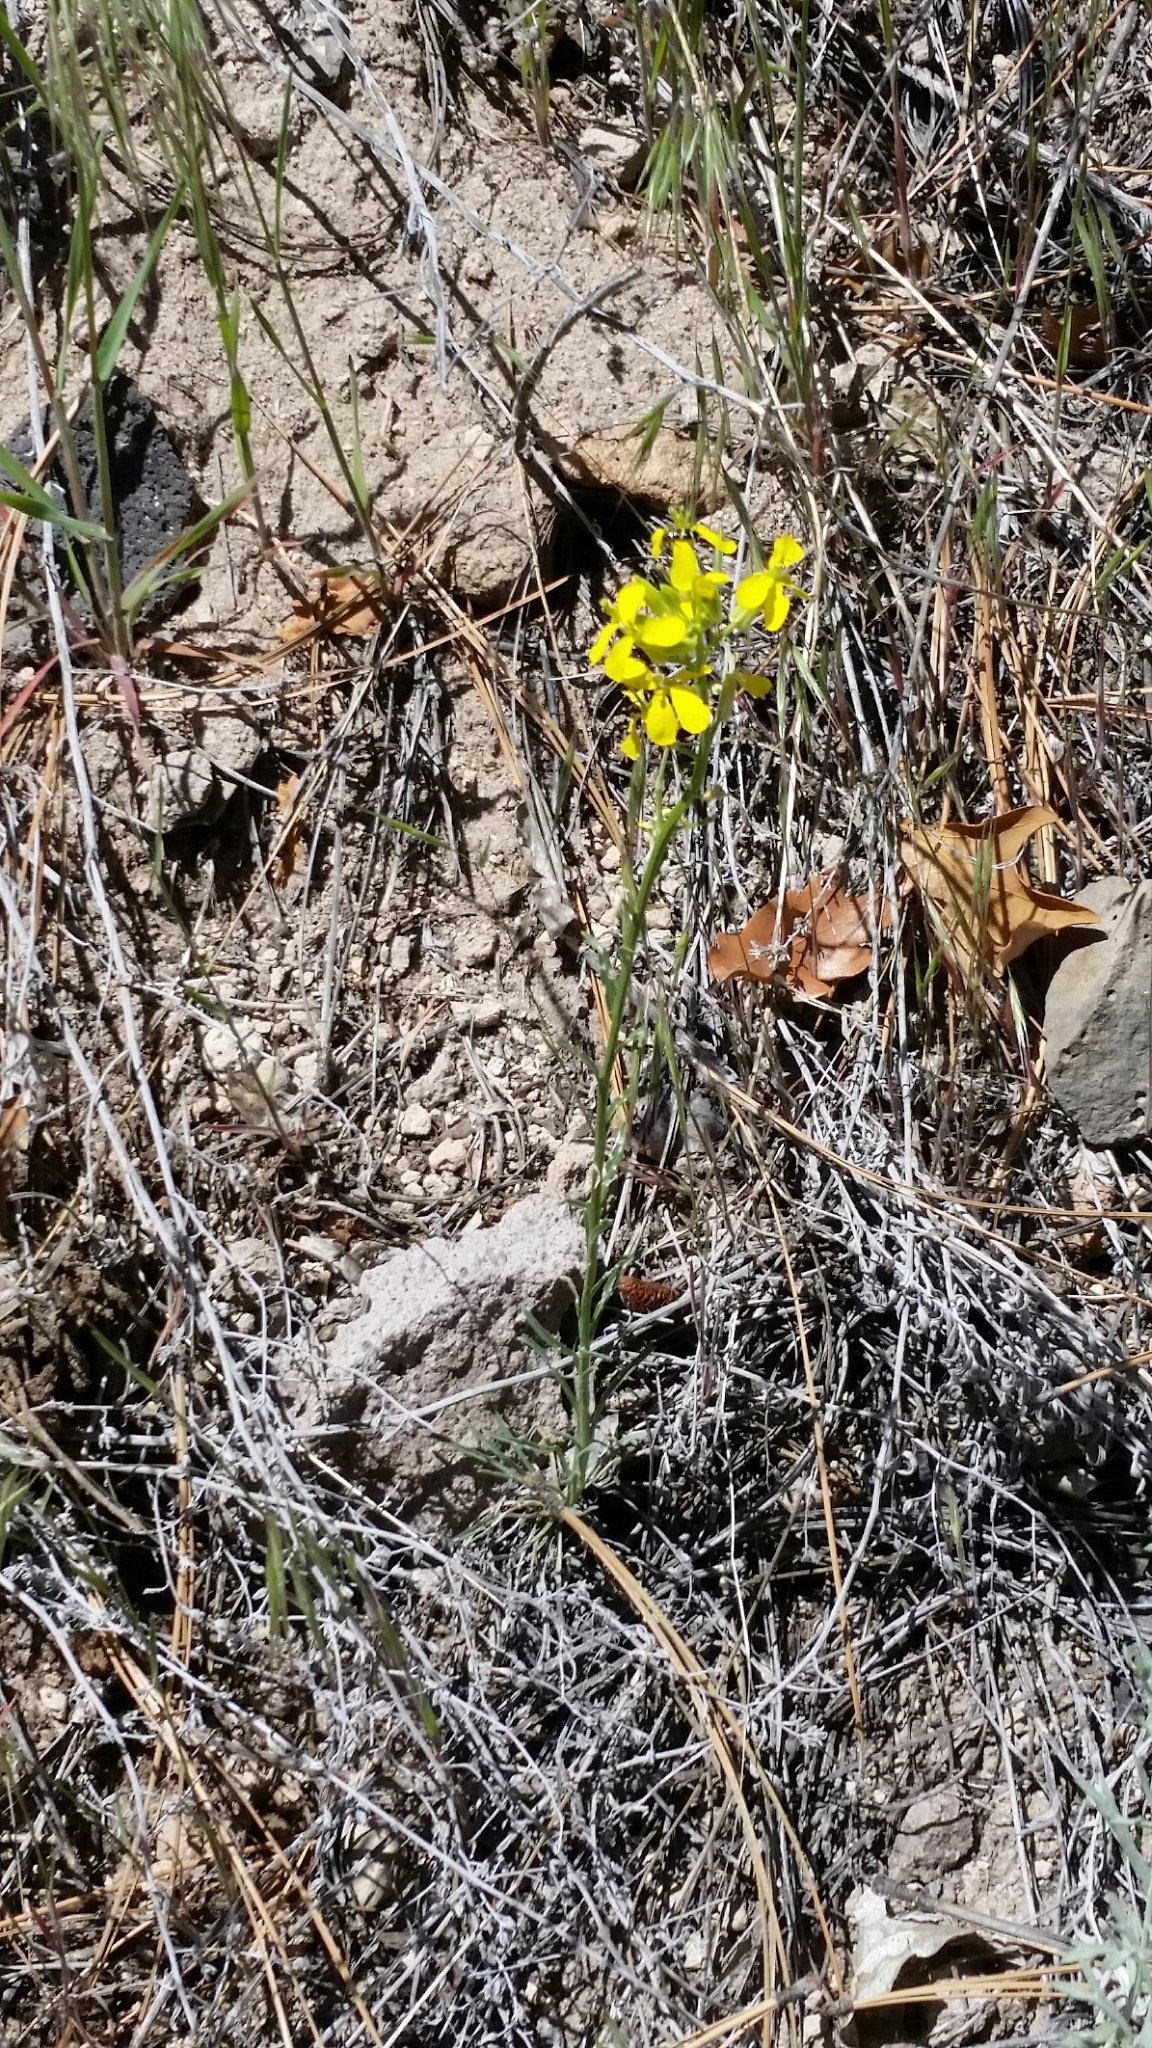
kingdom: Plantae
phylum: Tracheophyta
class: Magnoliopsida
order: Brassicales
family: Brassicaceae
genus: Erysimum
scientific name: Erysimum capitatum
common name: Western wallflower
